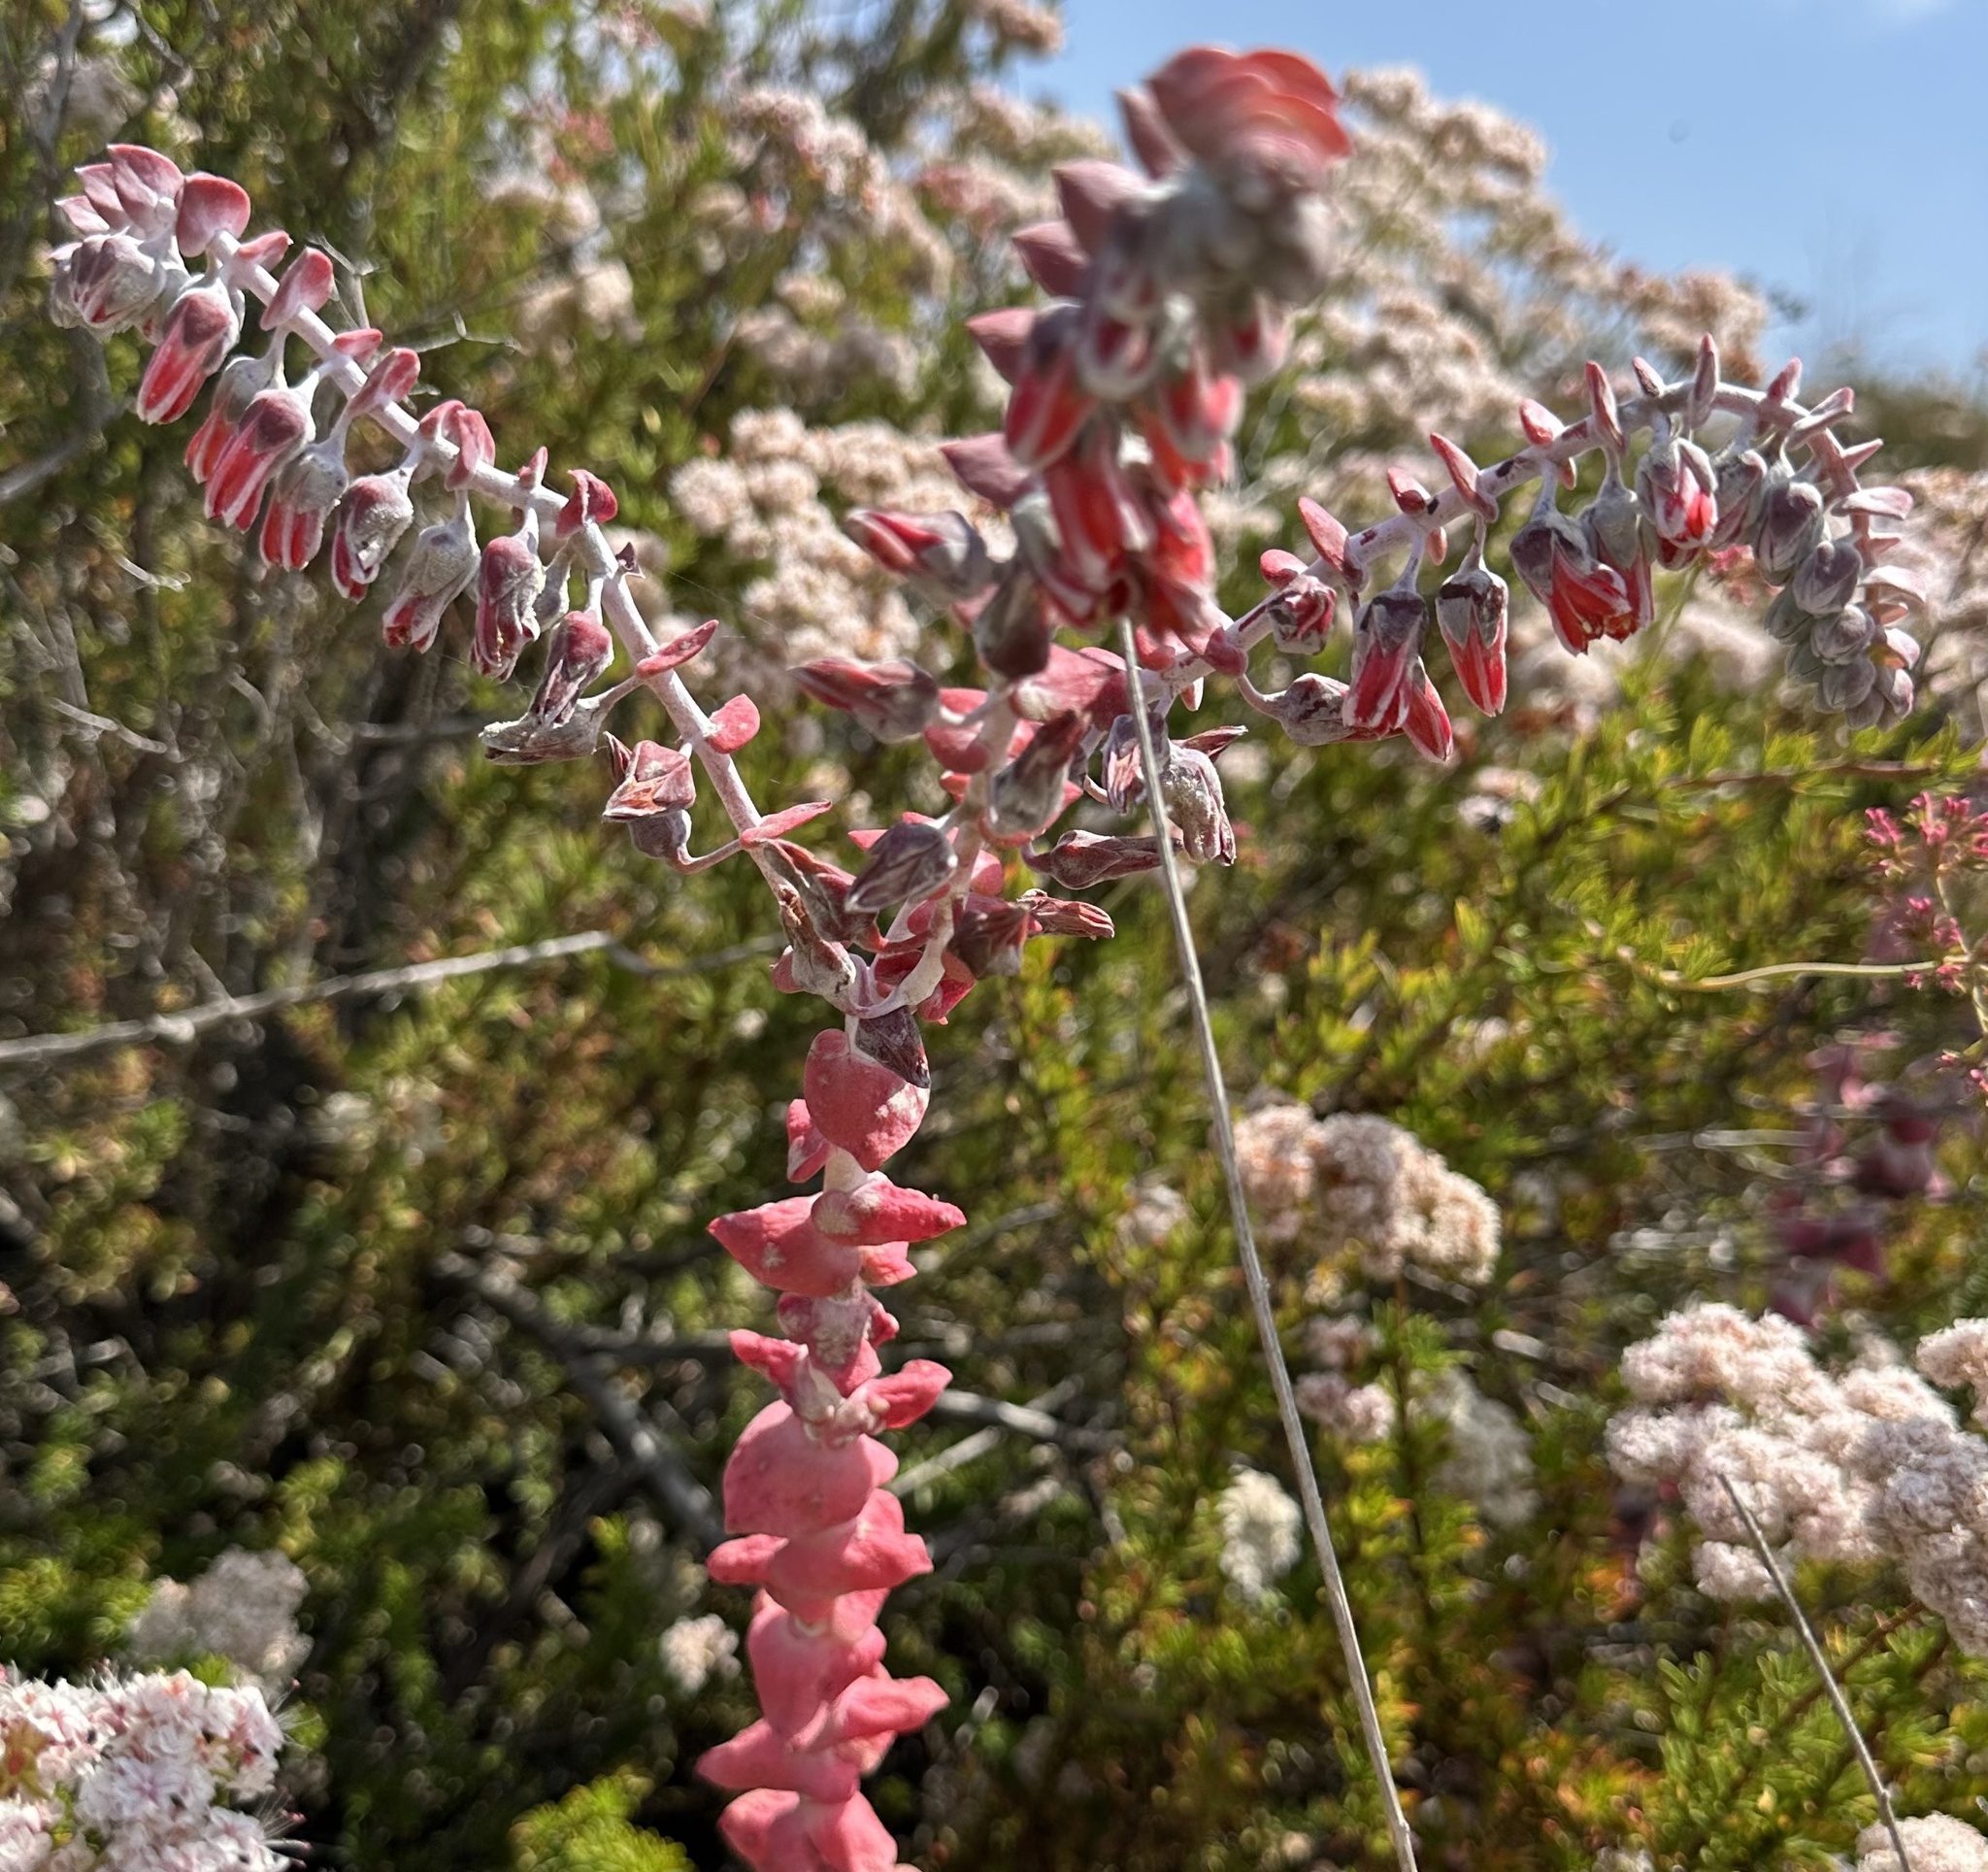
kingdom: Plantae
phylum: Tracheophyta
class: Magnoliopsida
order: Saxifragales
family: Crassulaceae
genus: Dudleya
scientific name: Dudleya pulverulenta
